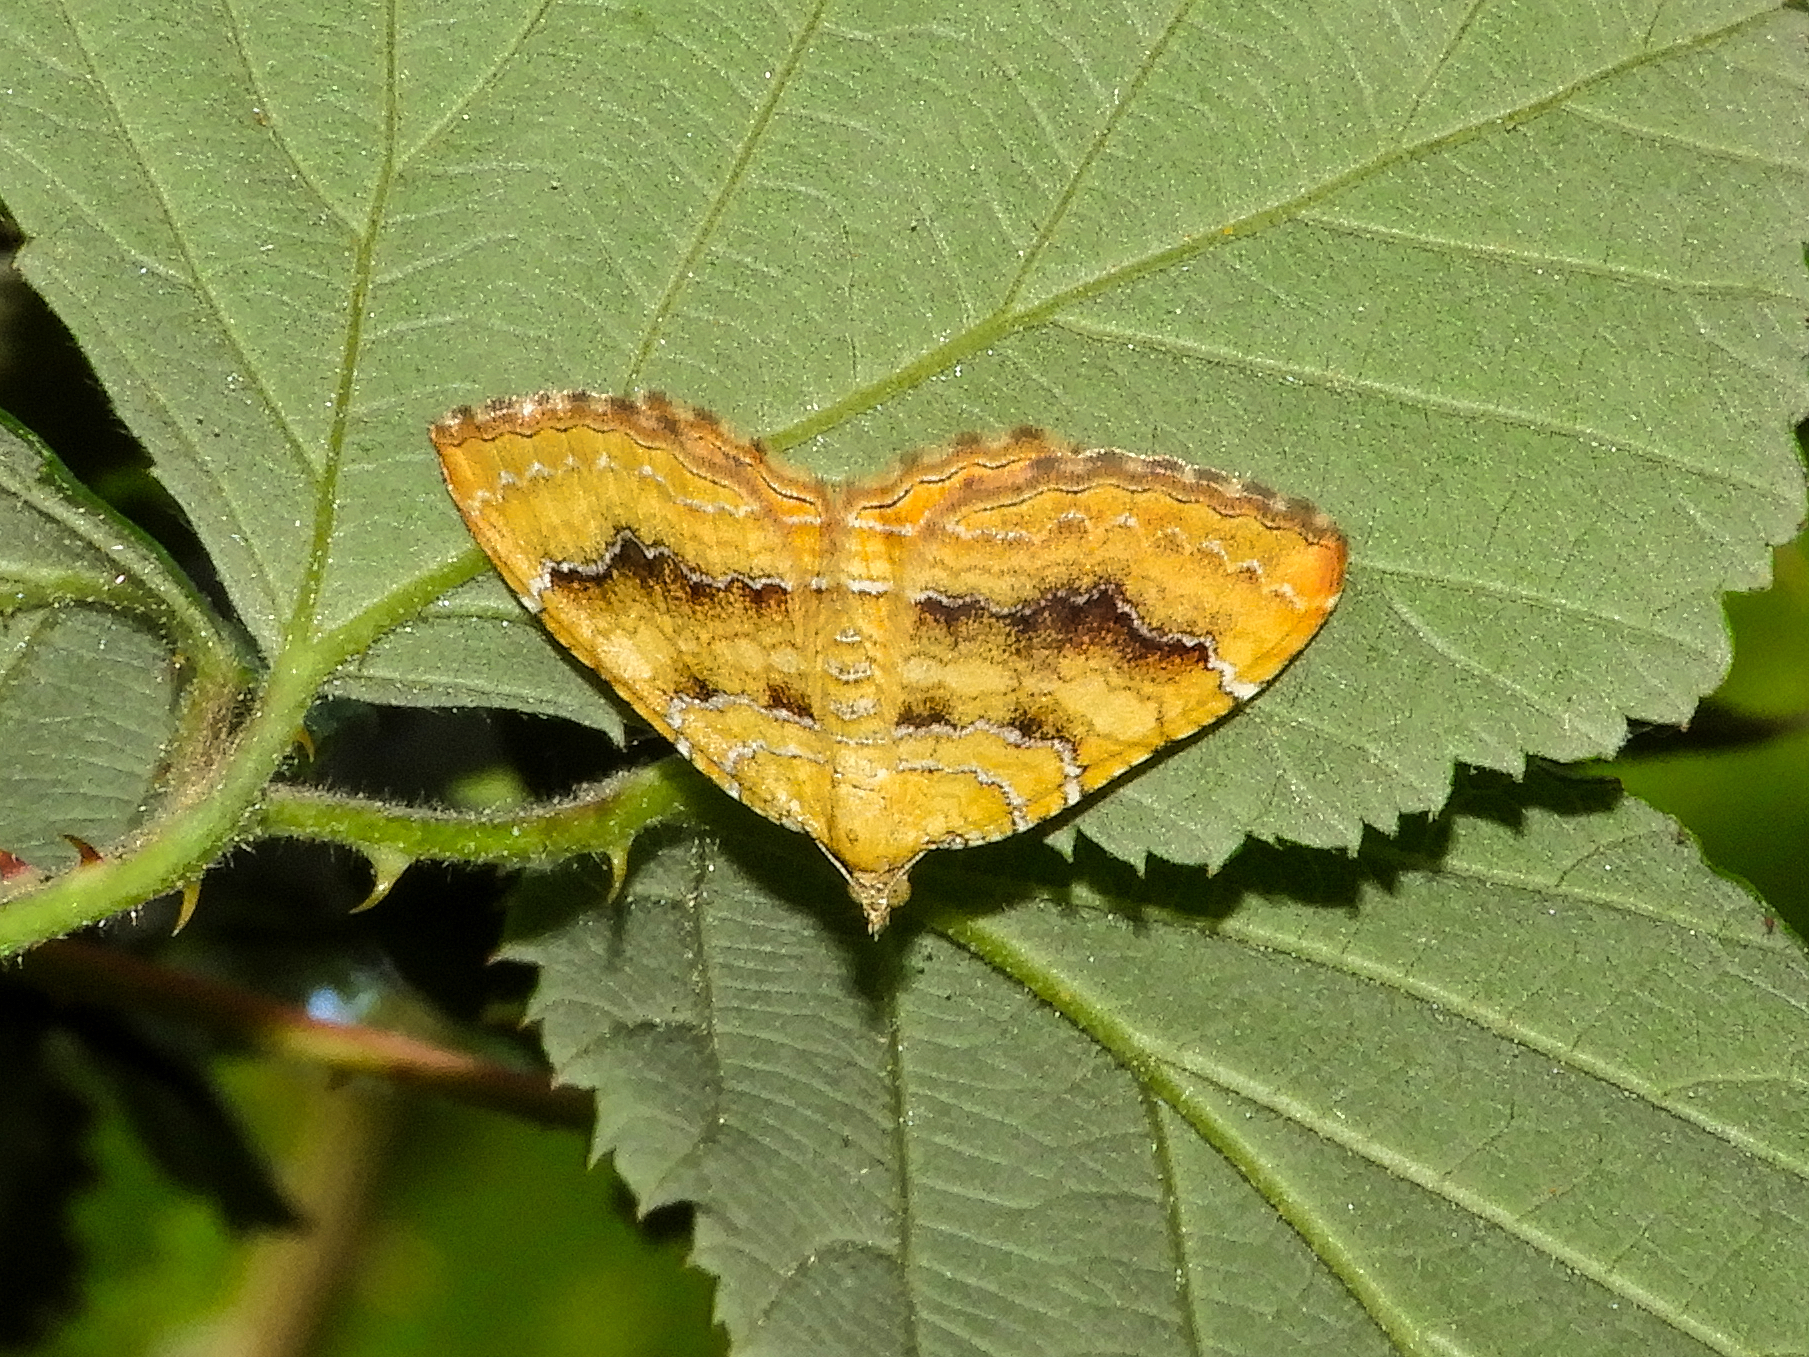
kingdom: Animalia
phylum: Arthropoda
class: Insecta
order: Lepidoptera
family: Geometridae
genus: Camptogramma
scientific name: Camptogramma bilineata
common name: Yellow shell
